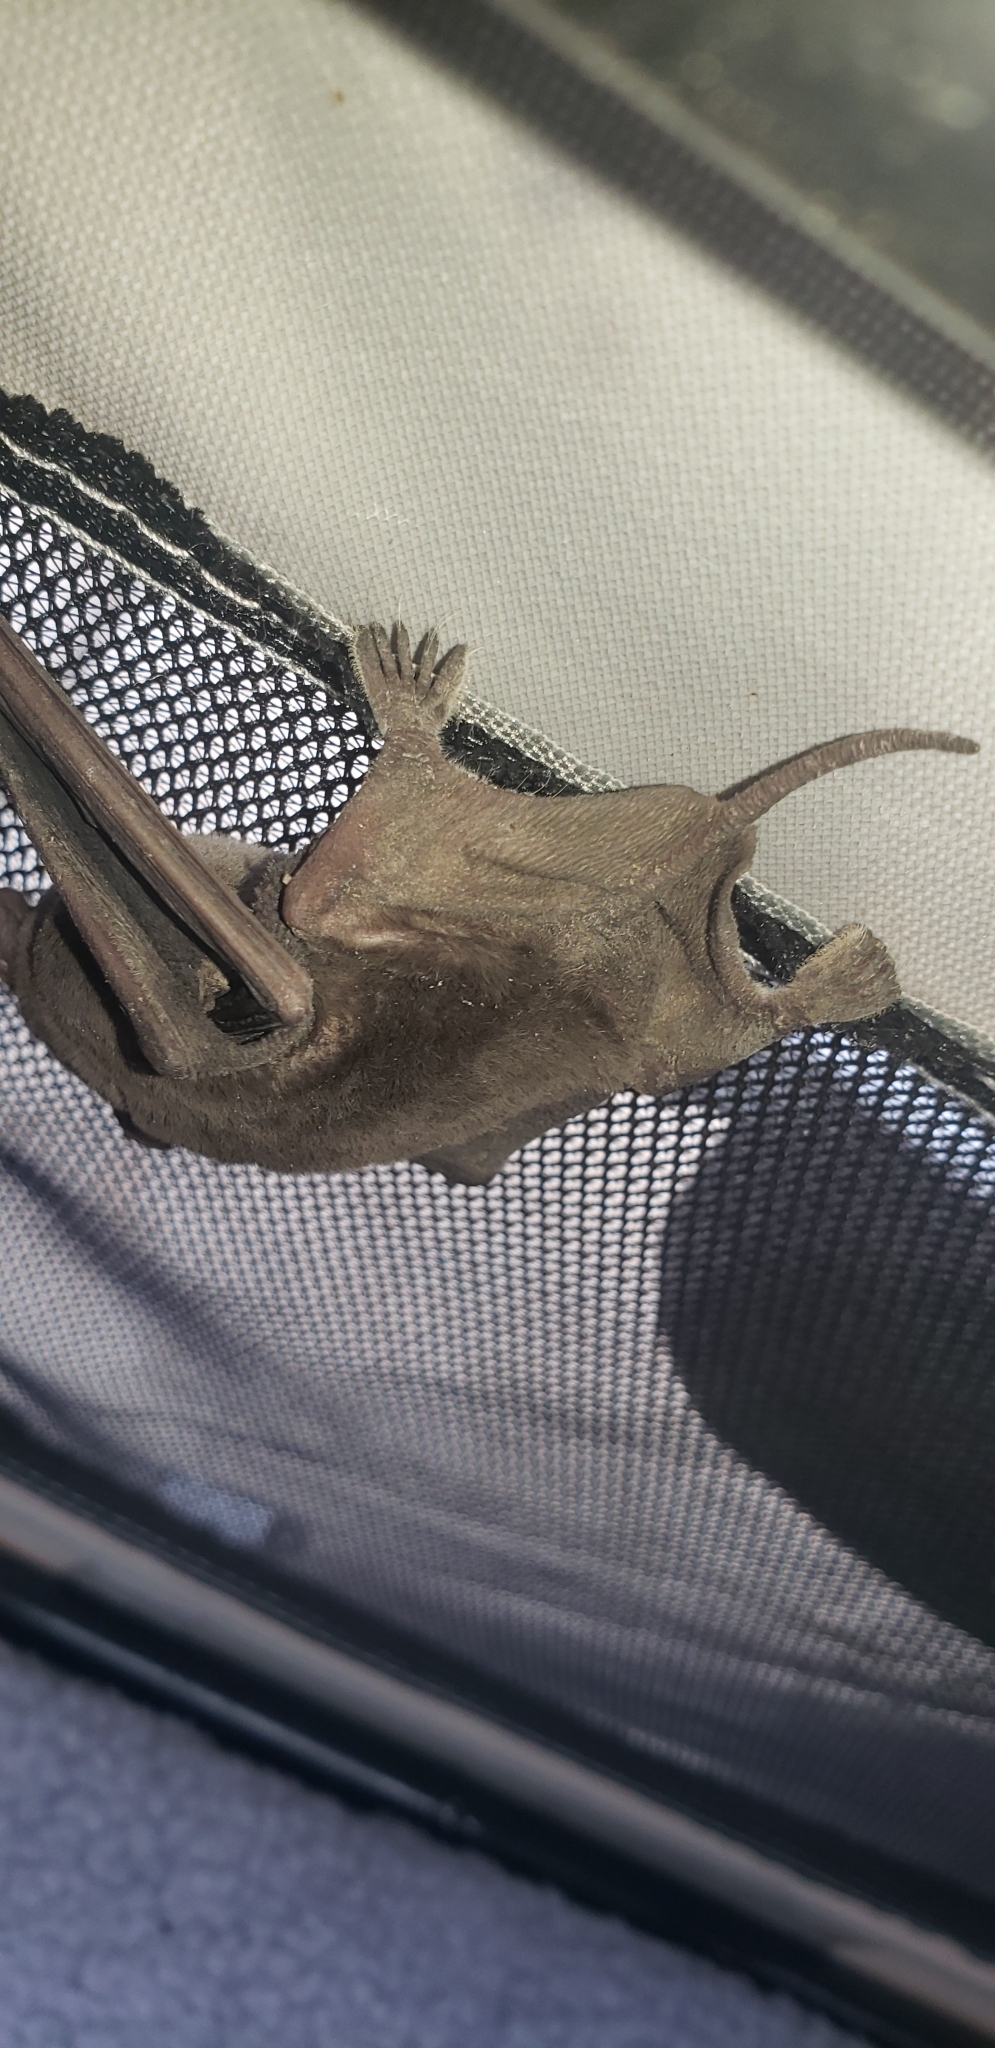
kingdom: Animalia
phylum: Chordata
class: Mammalia
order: Chiroptera
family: Molossidae
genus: Tadarida
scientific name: Tadarida brasiliensis
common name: Mexican free-tailed bat
